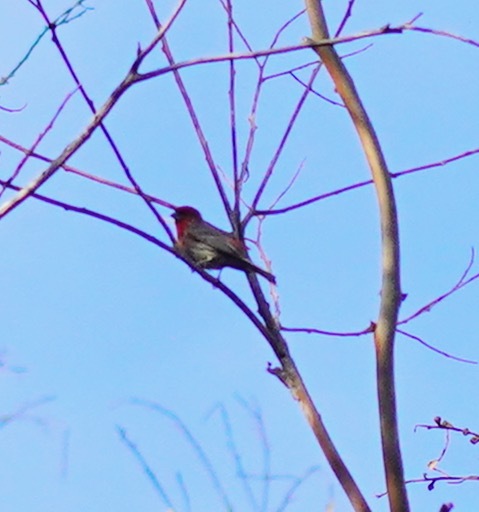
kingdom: Animalia
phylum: Chordata
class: Aves
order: Passeriformes
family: Fringillidae
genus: Haemorhous
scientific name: Haemorhous mexicanus
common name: House finch
